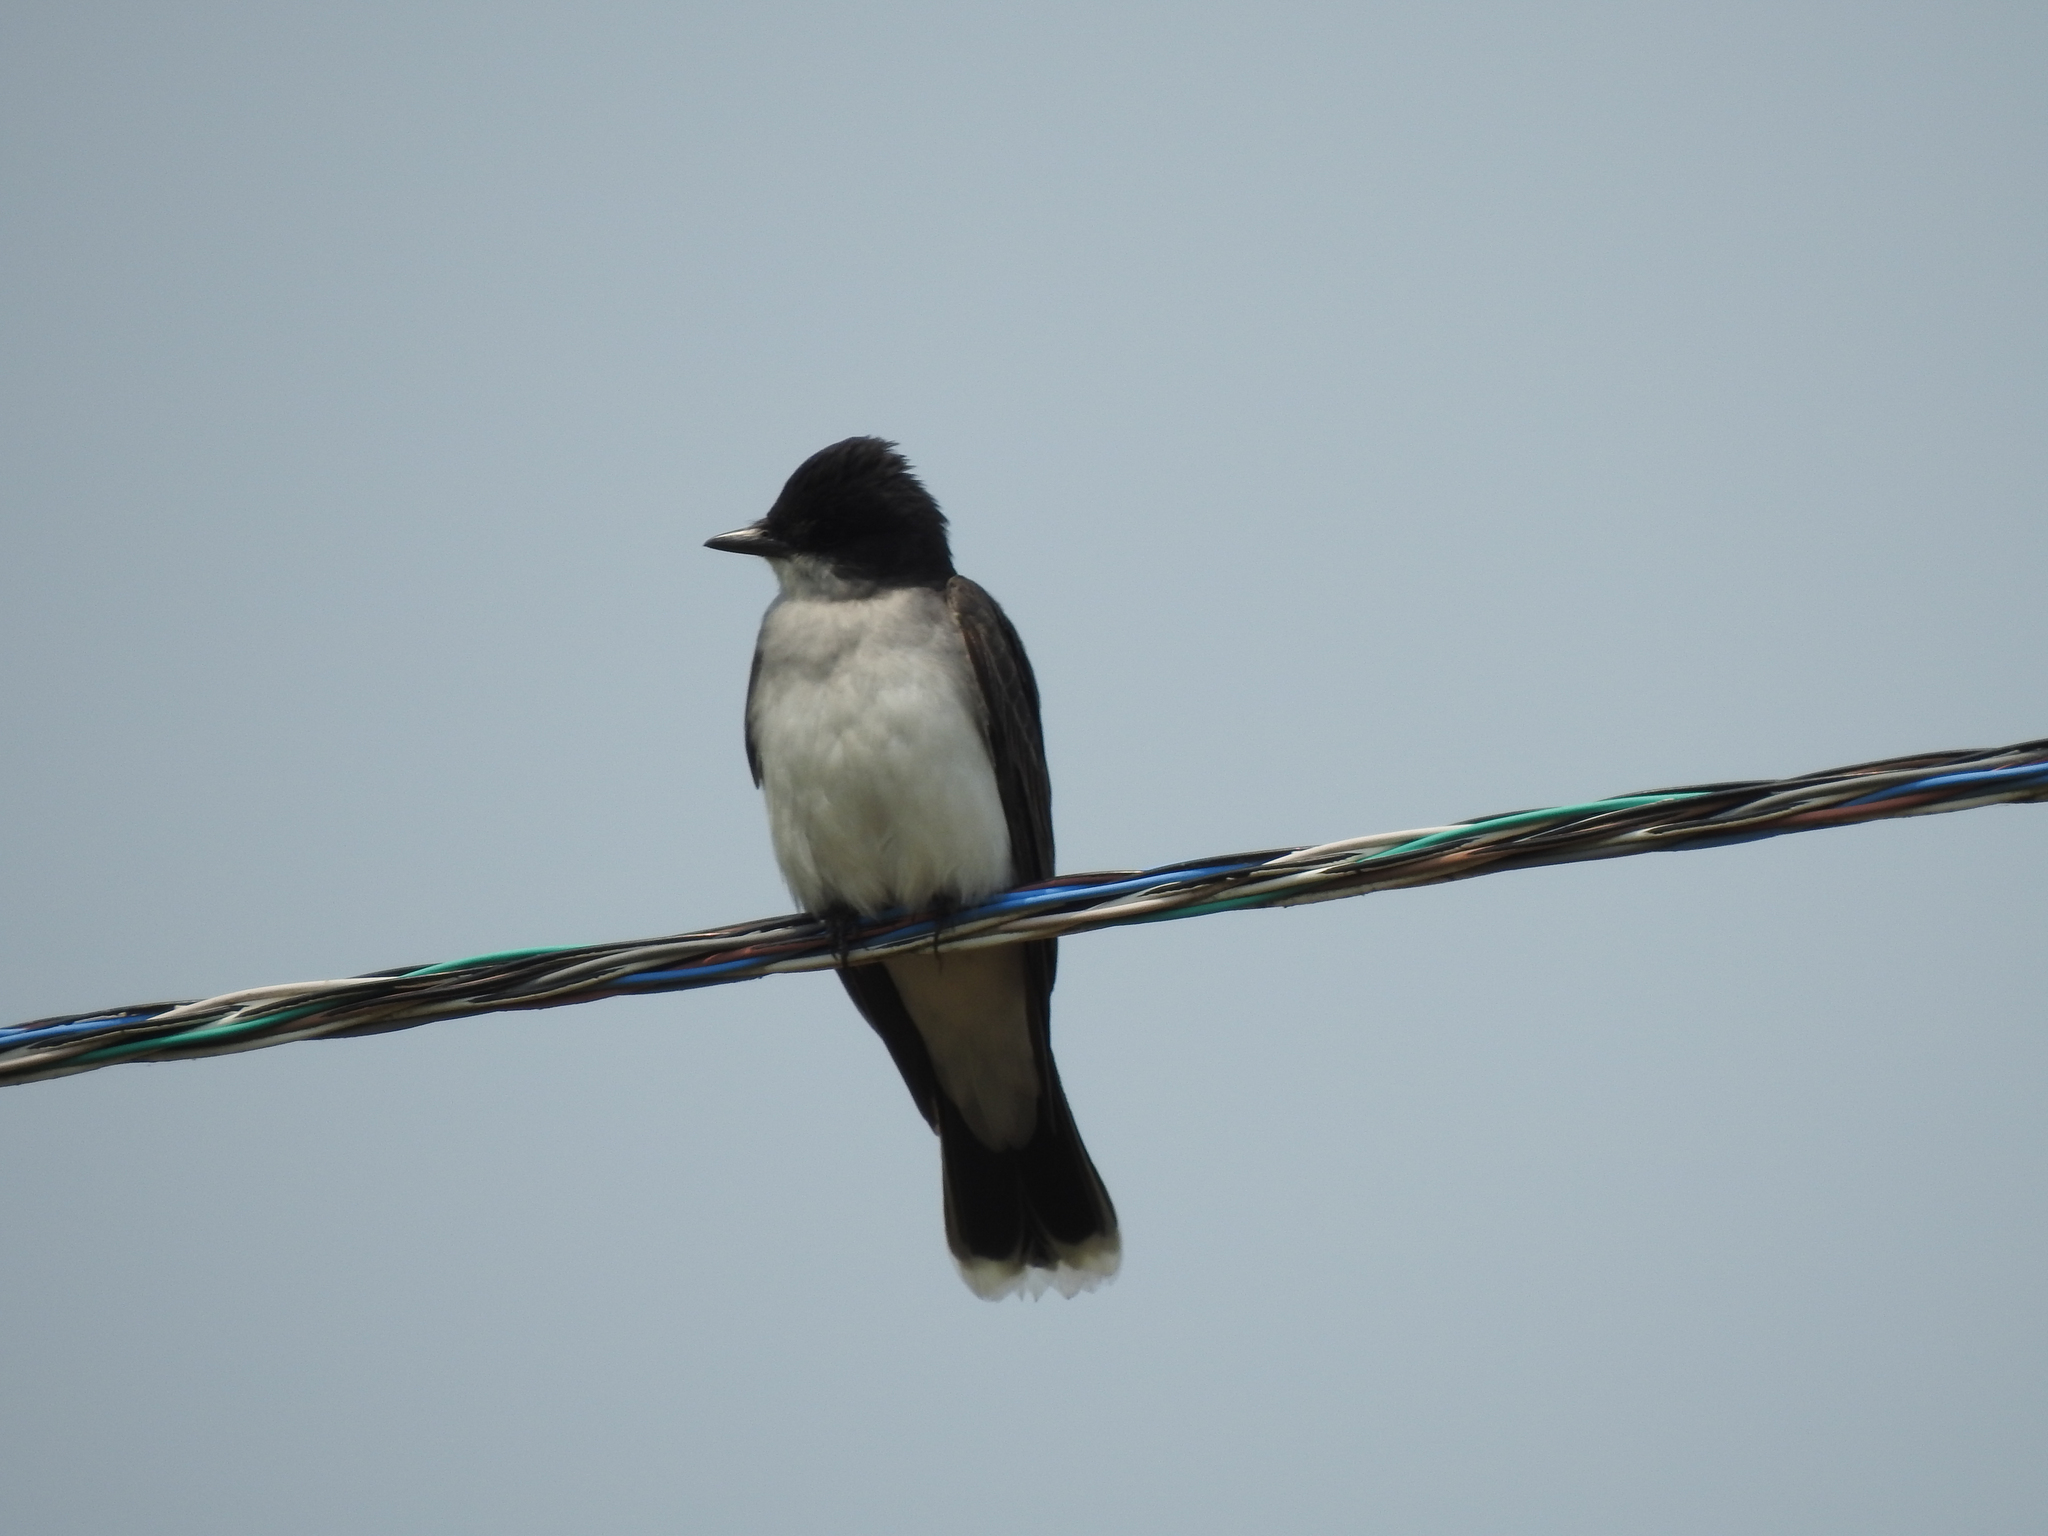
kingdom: Animalia
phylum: Chordata
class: Aves
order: Passeriformes
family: Tyrannidae
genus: Tyrannus
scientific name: Tyrannus tyrannus
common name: Eastern kingbird
